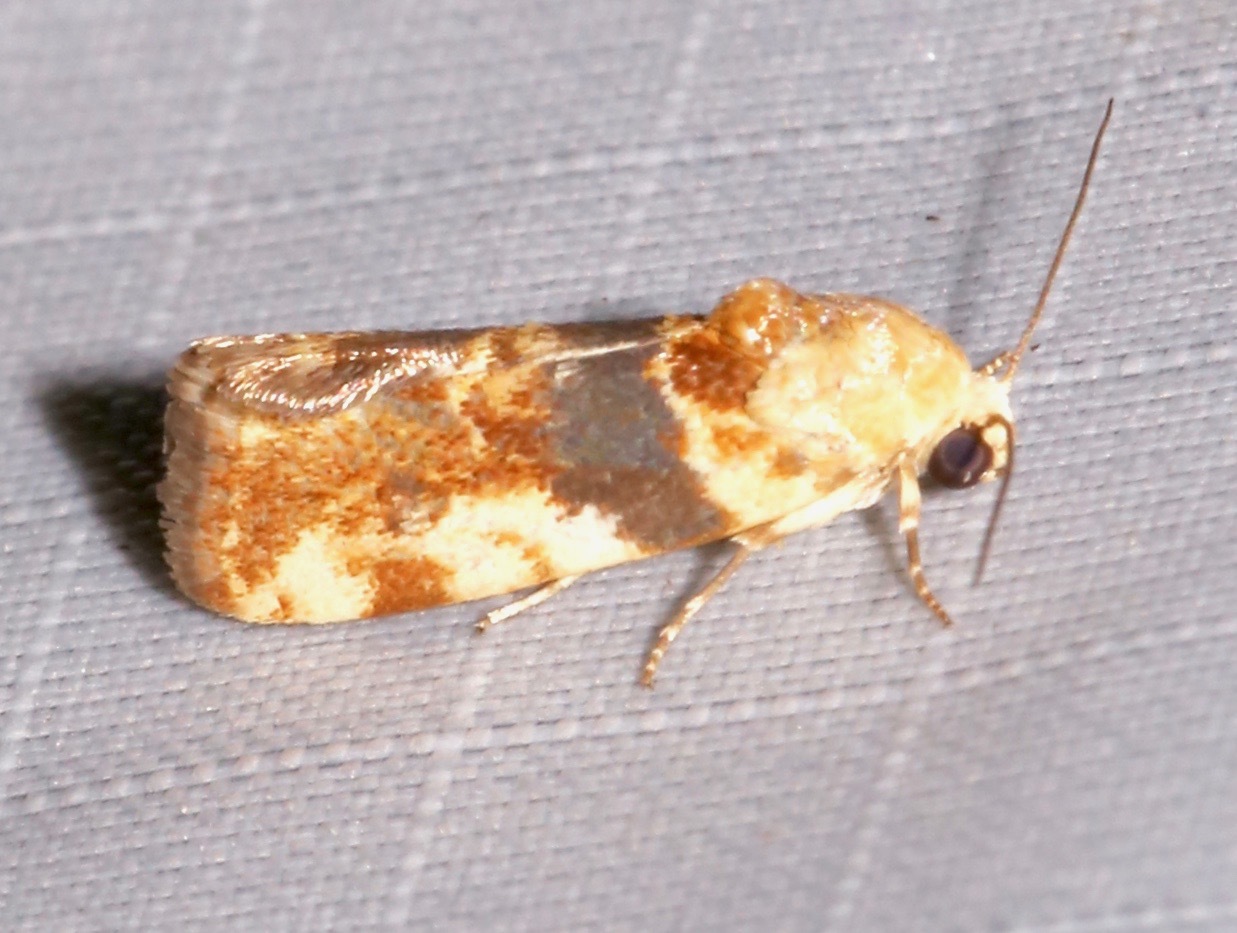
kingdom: Animalia
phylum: Arthropoda
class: Insecta
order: Lepidoptera
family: Noctuidae
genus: Acontia
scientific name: Acontia obatra
